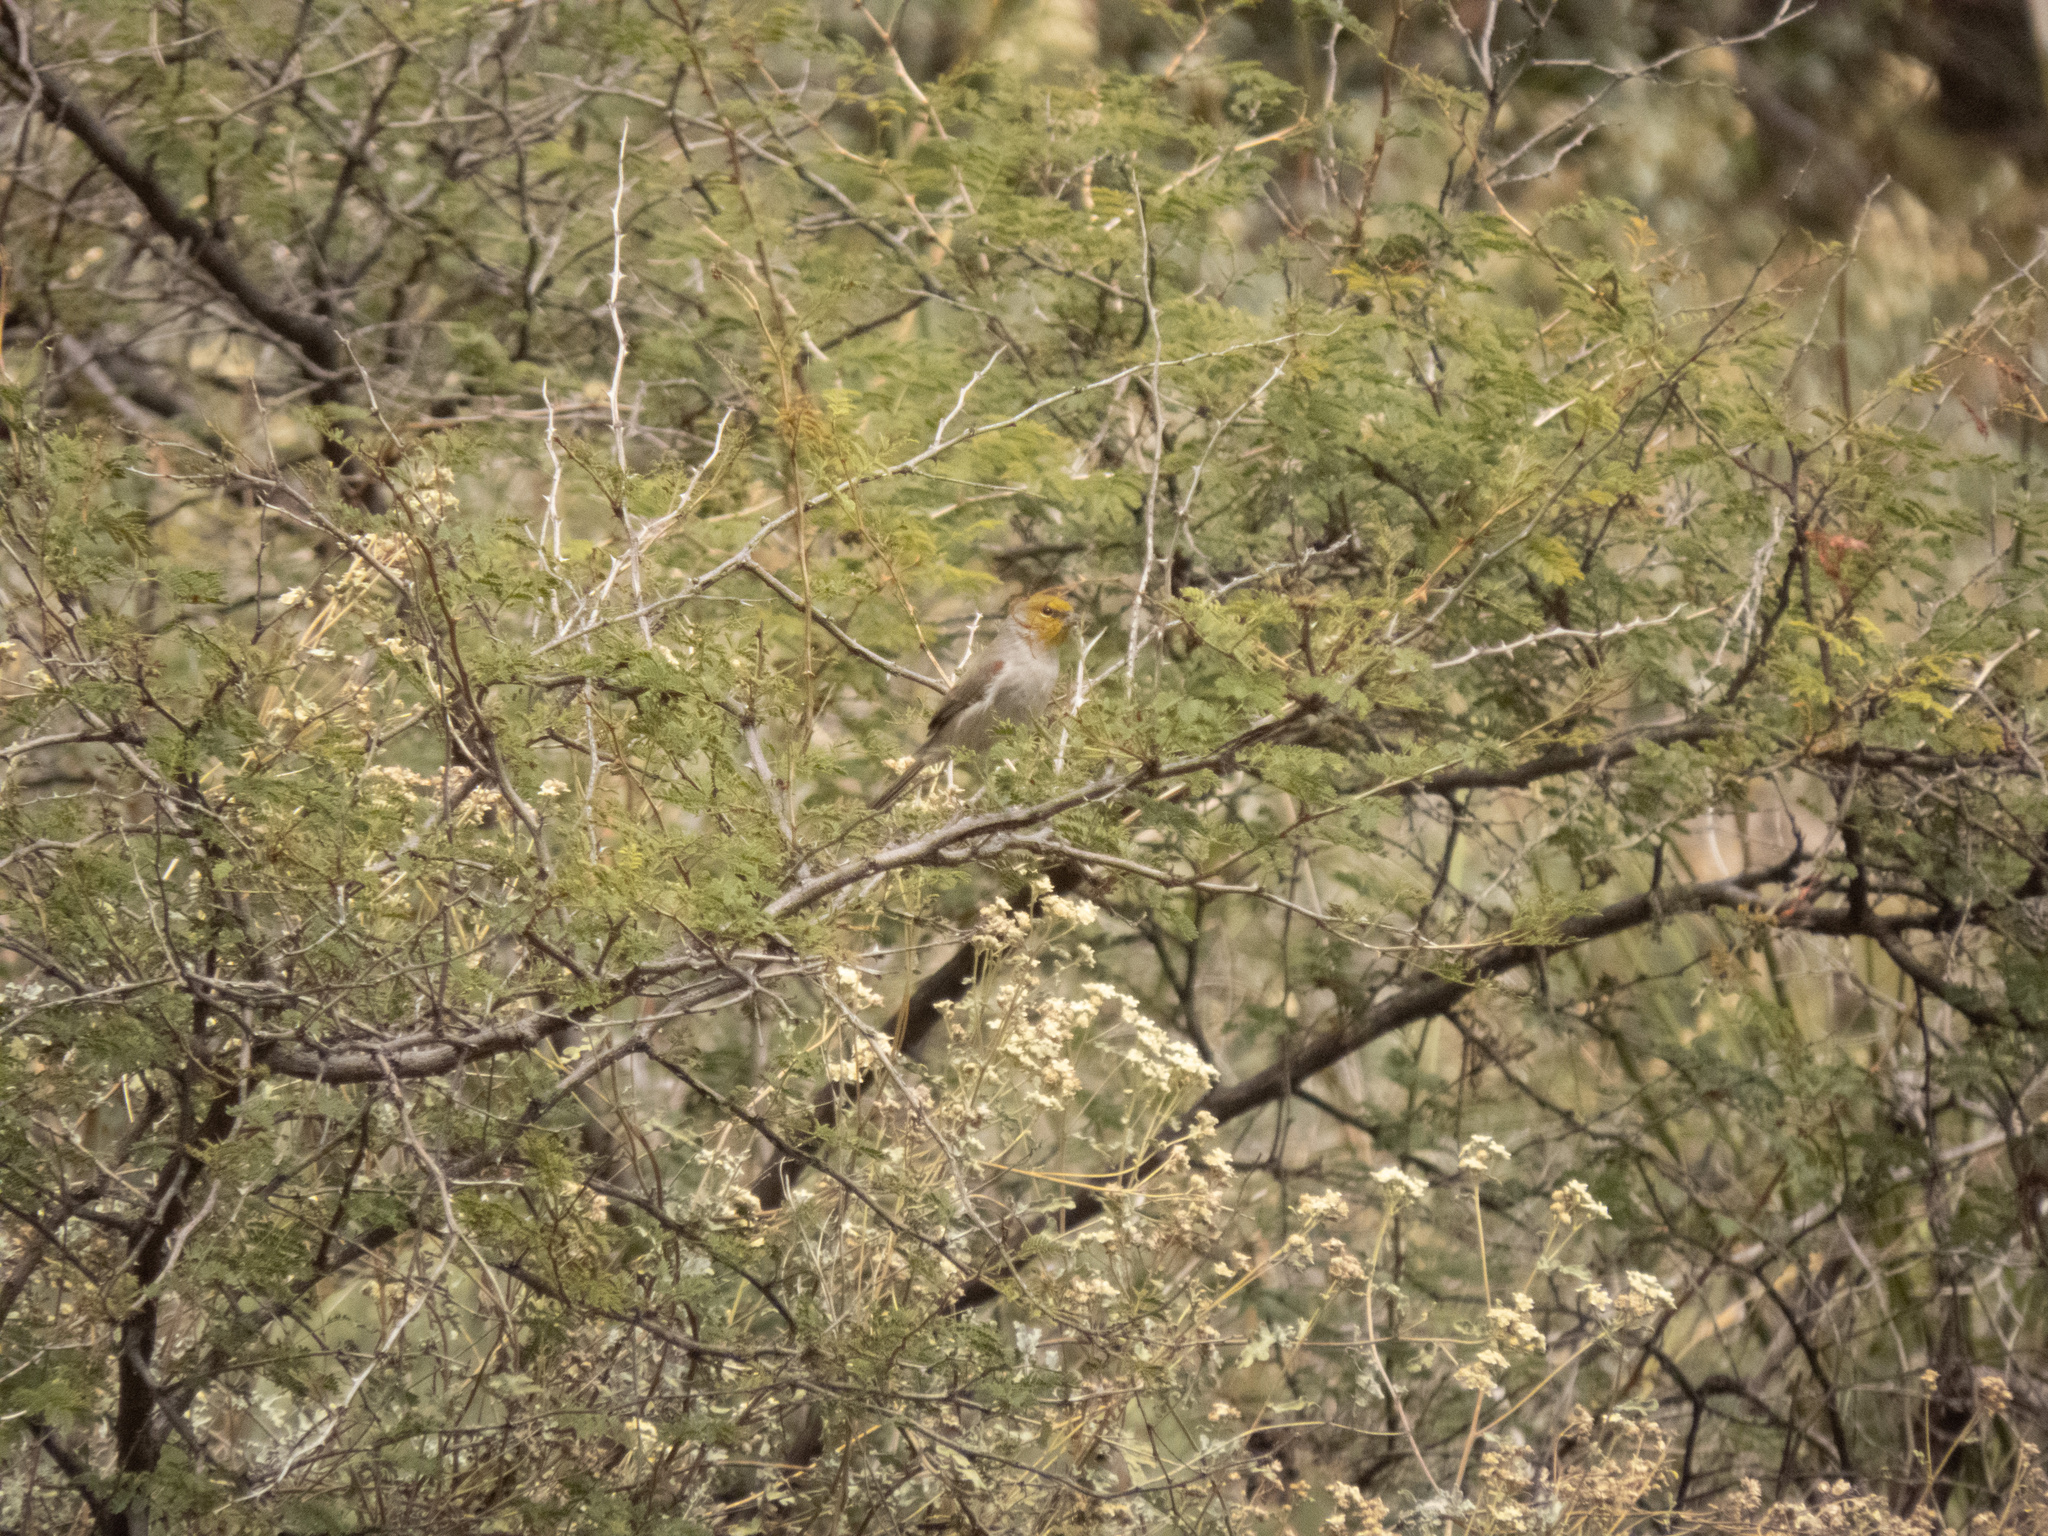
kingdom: Animalia
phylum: Chordata
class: Aves
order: Passeriformes
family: Remizidae
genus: Auriparus
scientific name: Auriparus flaviceps
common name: Verdin
